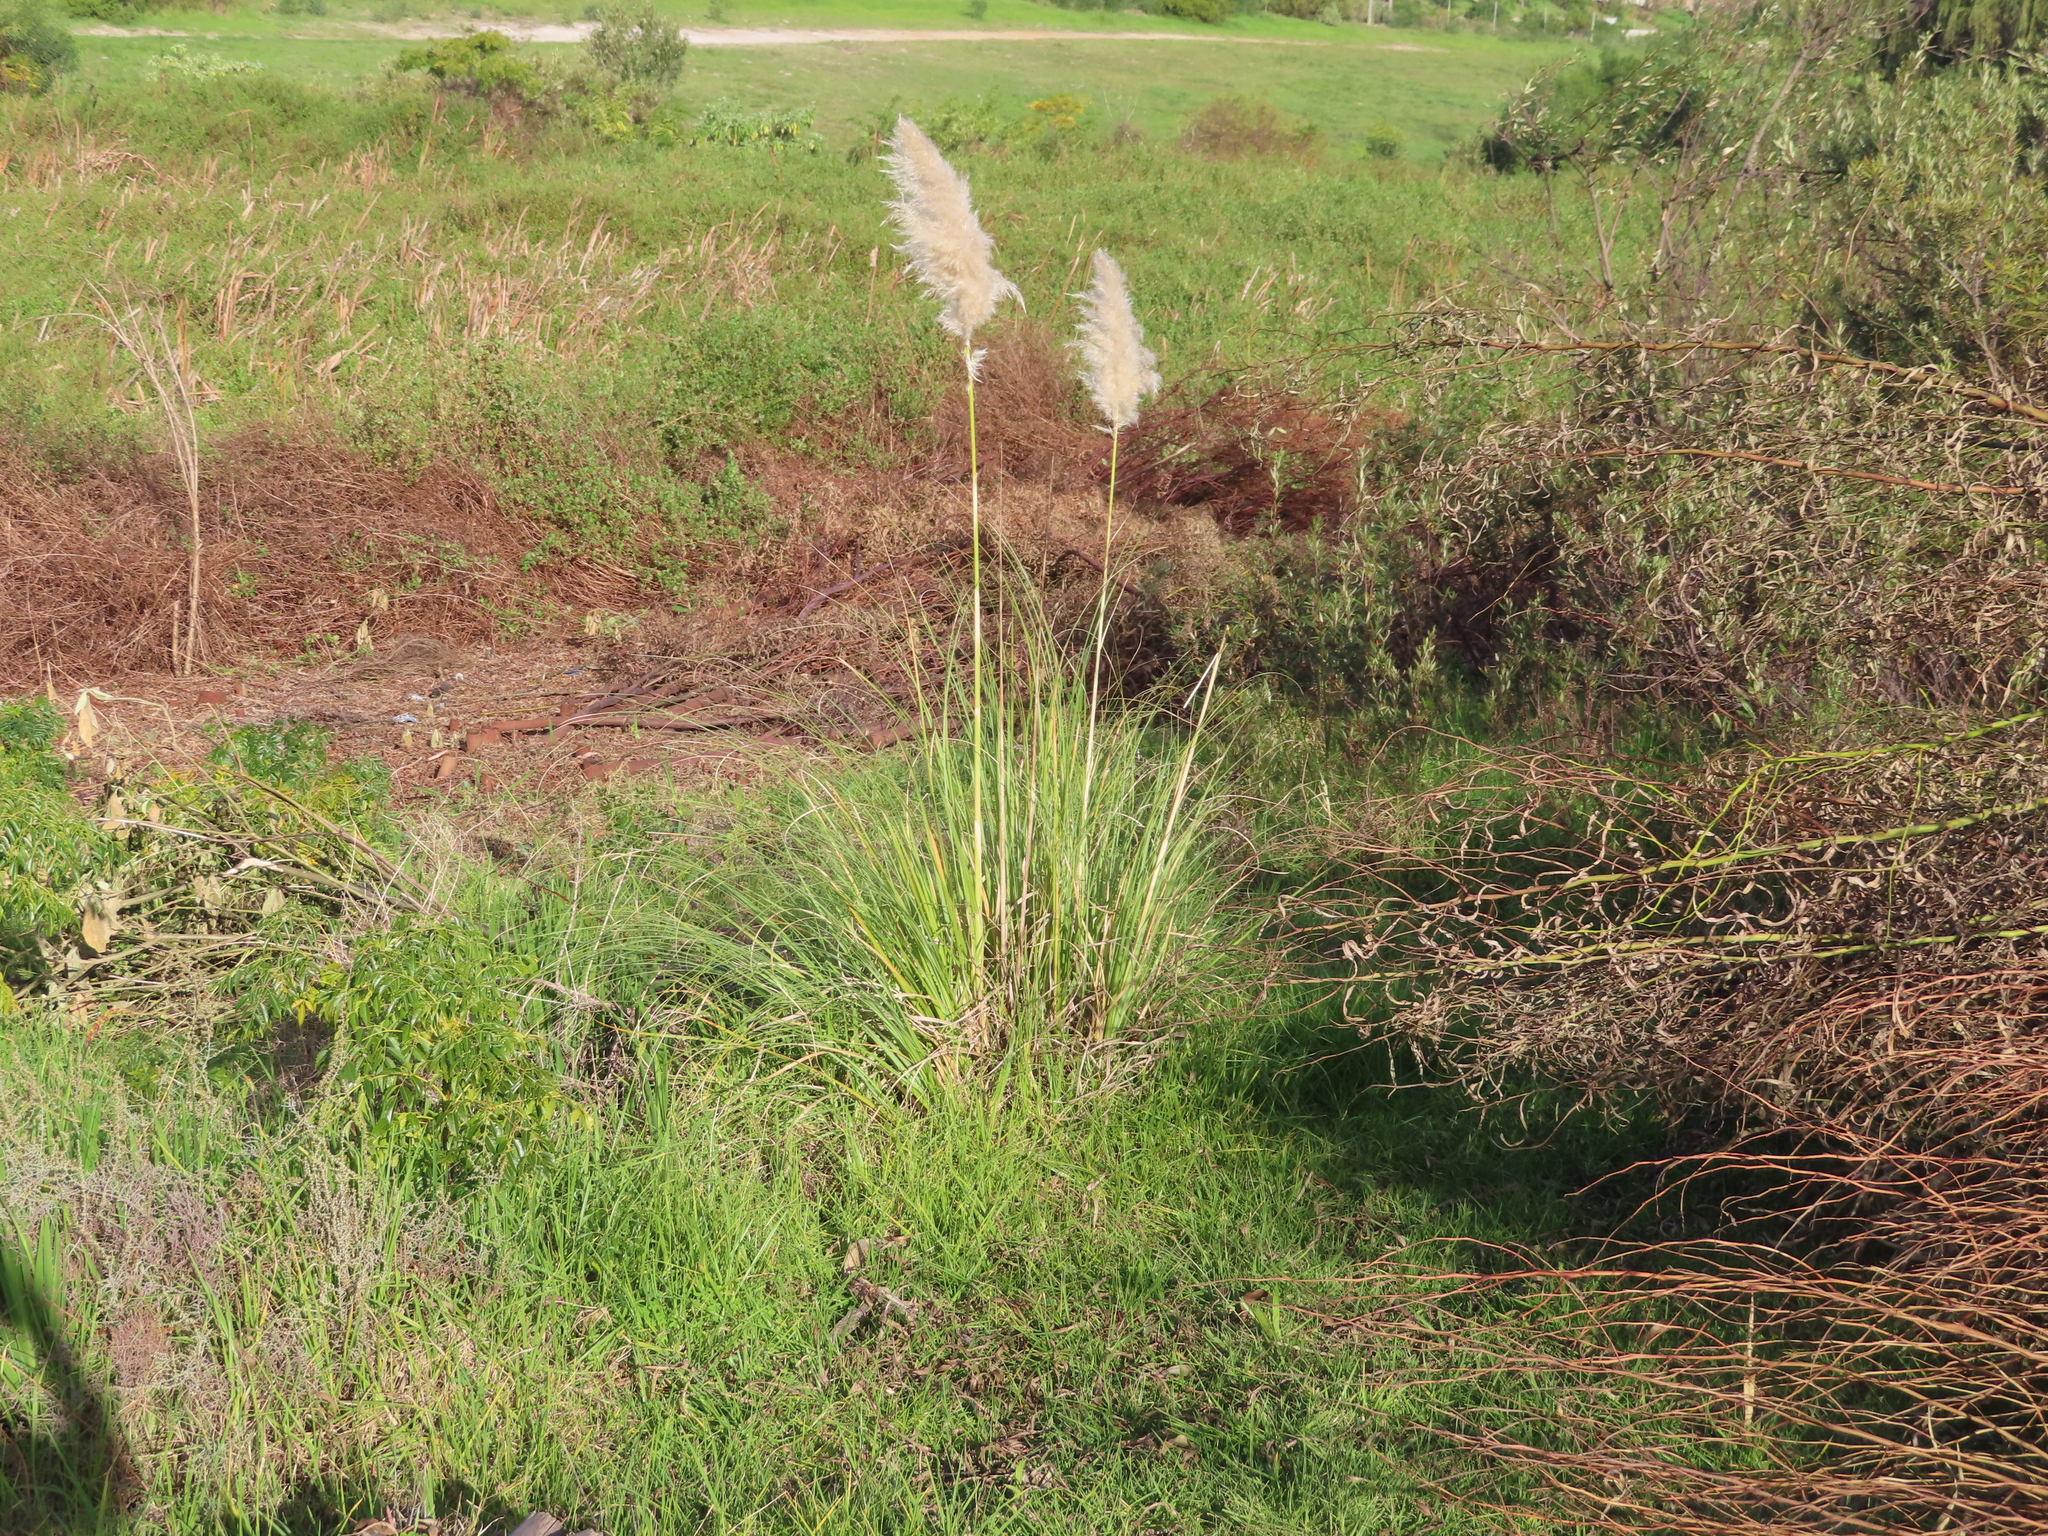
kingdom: Plantae
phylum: Tracheophyta
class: Liliopsida
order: Poales
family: Poaceae
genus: Cortaderia
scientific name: Cortaderia selloana
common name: Uruguayan pampas grass
